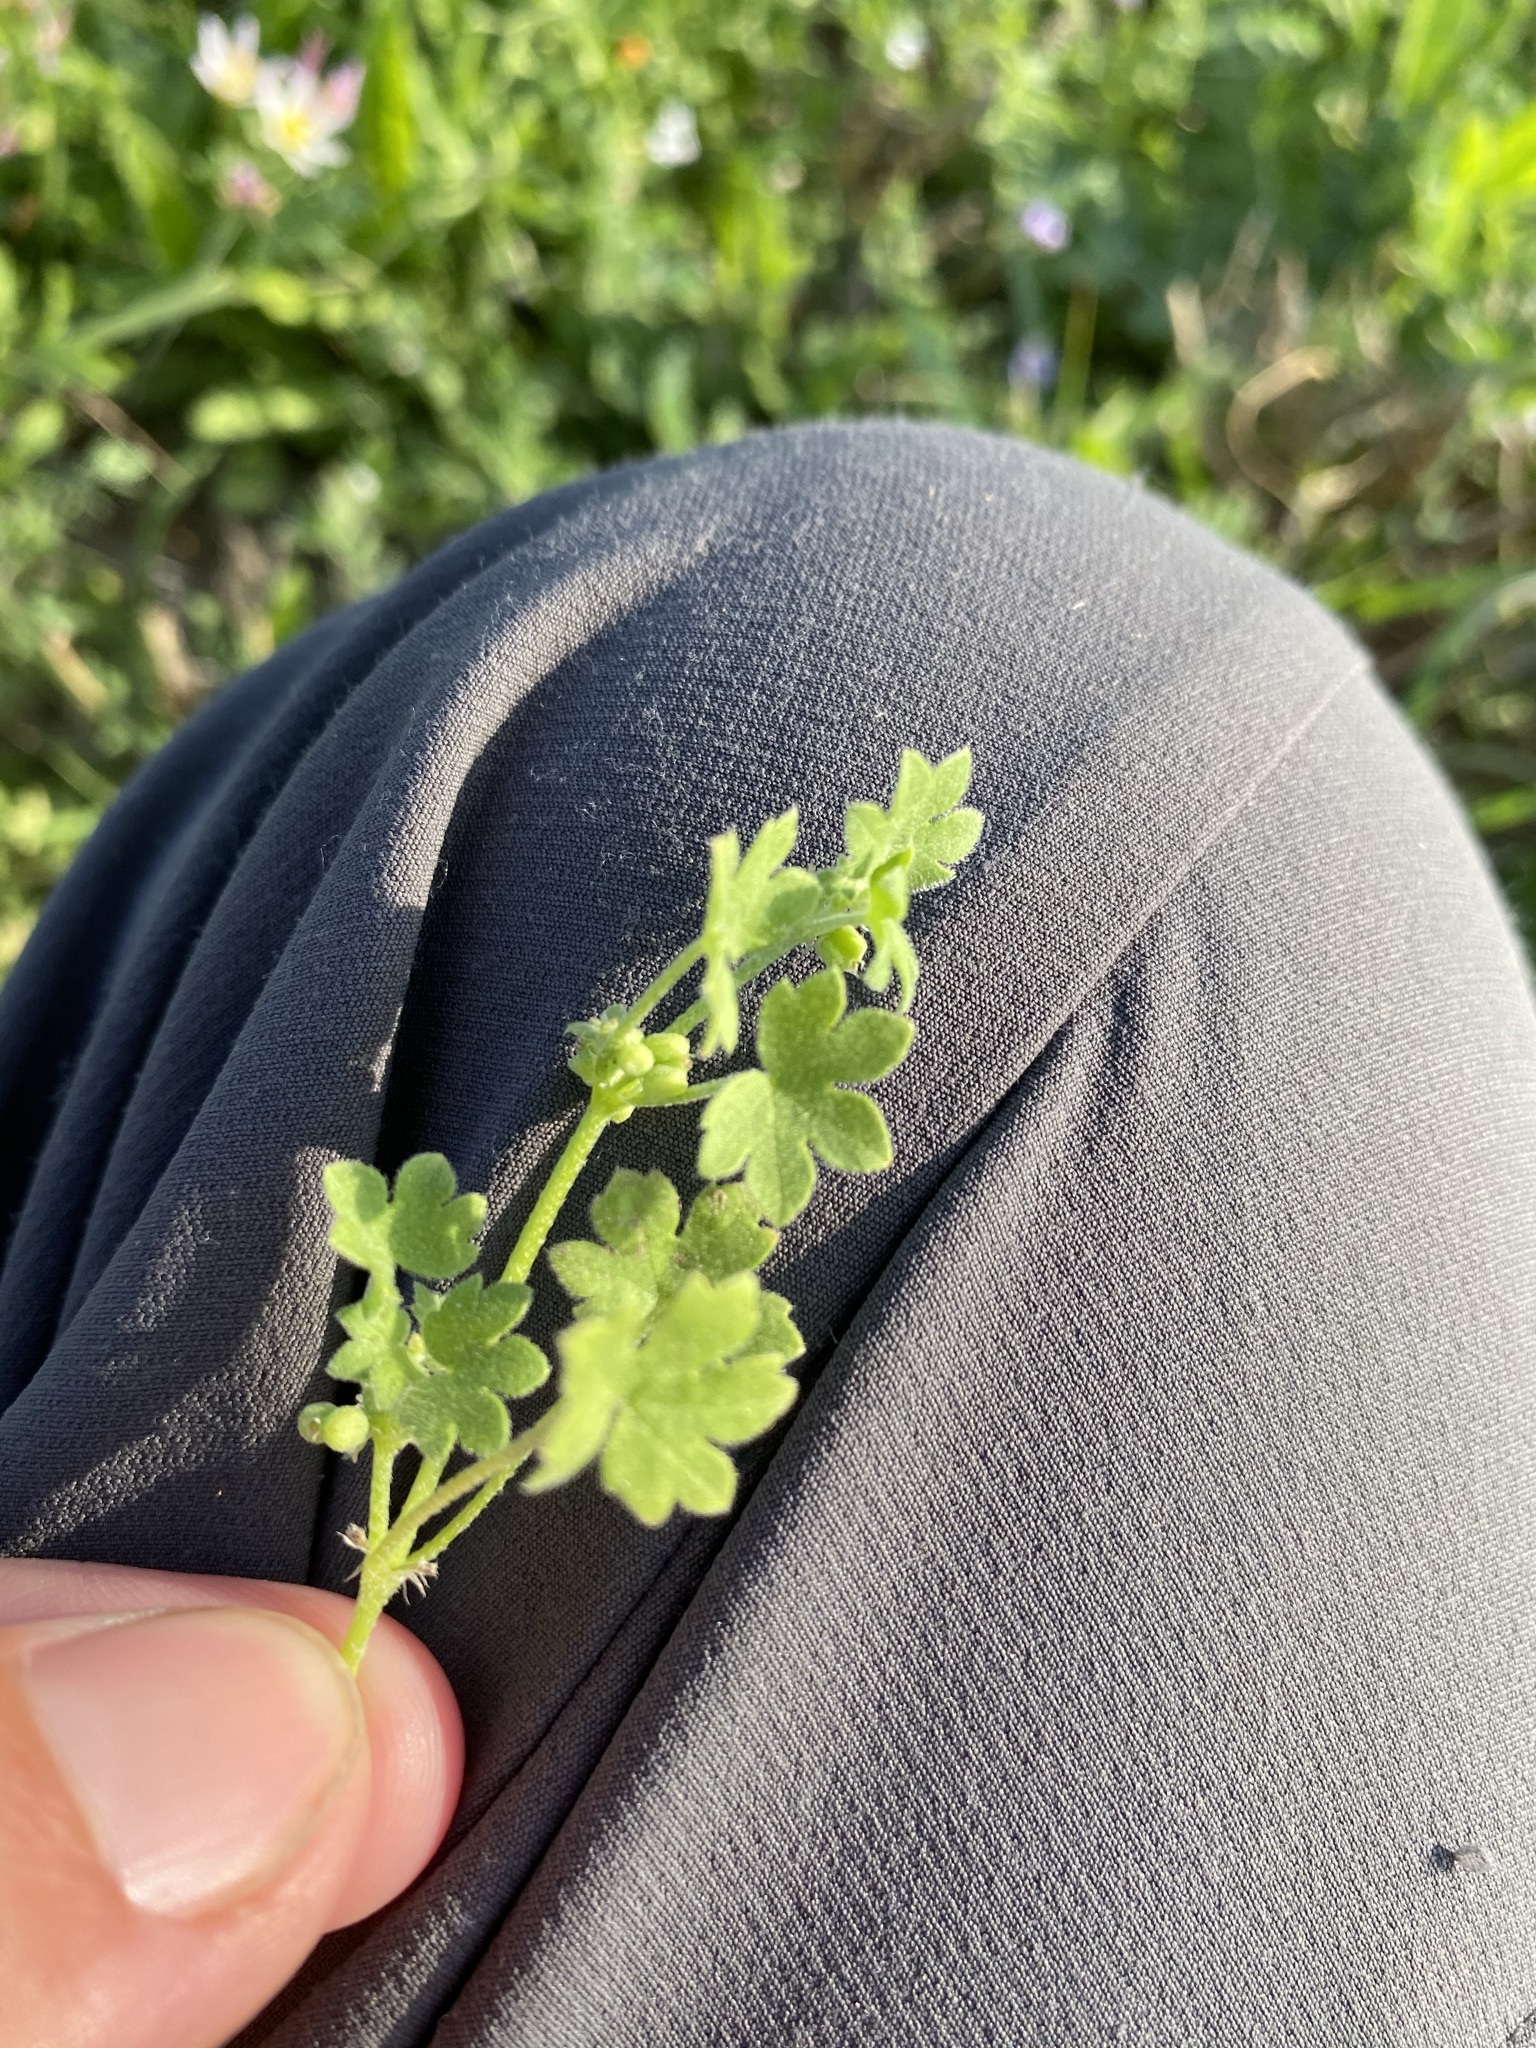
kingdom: Plantae
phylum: Tracheophyta
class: Magnoliopsida
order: Apiales
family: Apiaceae
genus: Bowlesia
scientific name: Bowlesia incana
